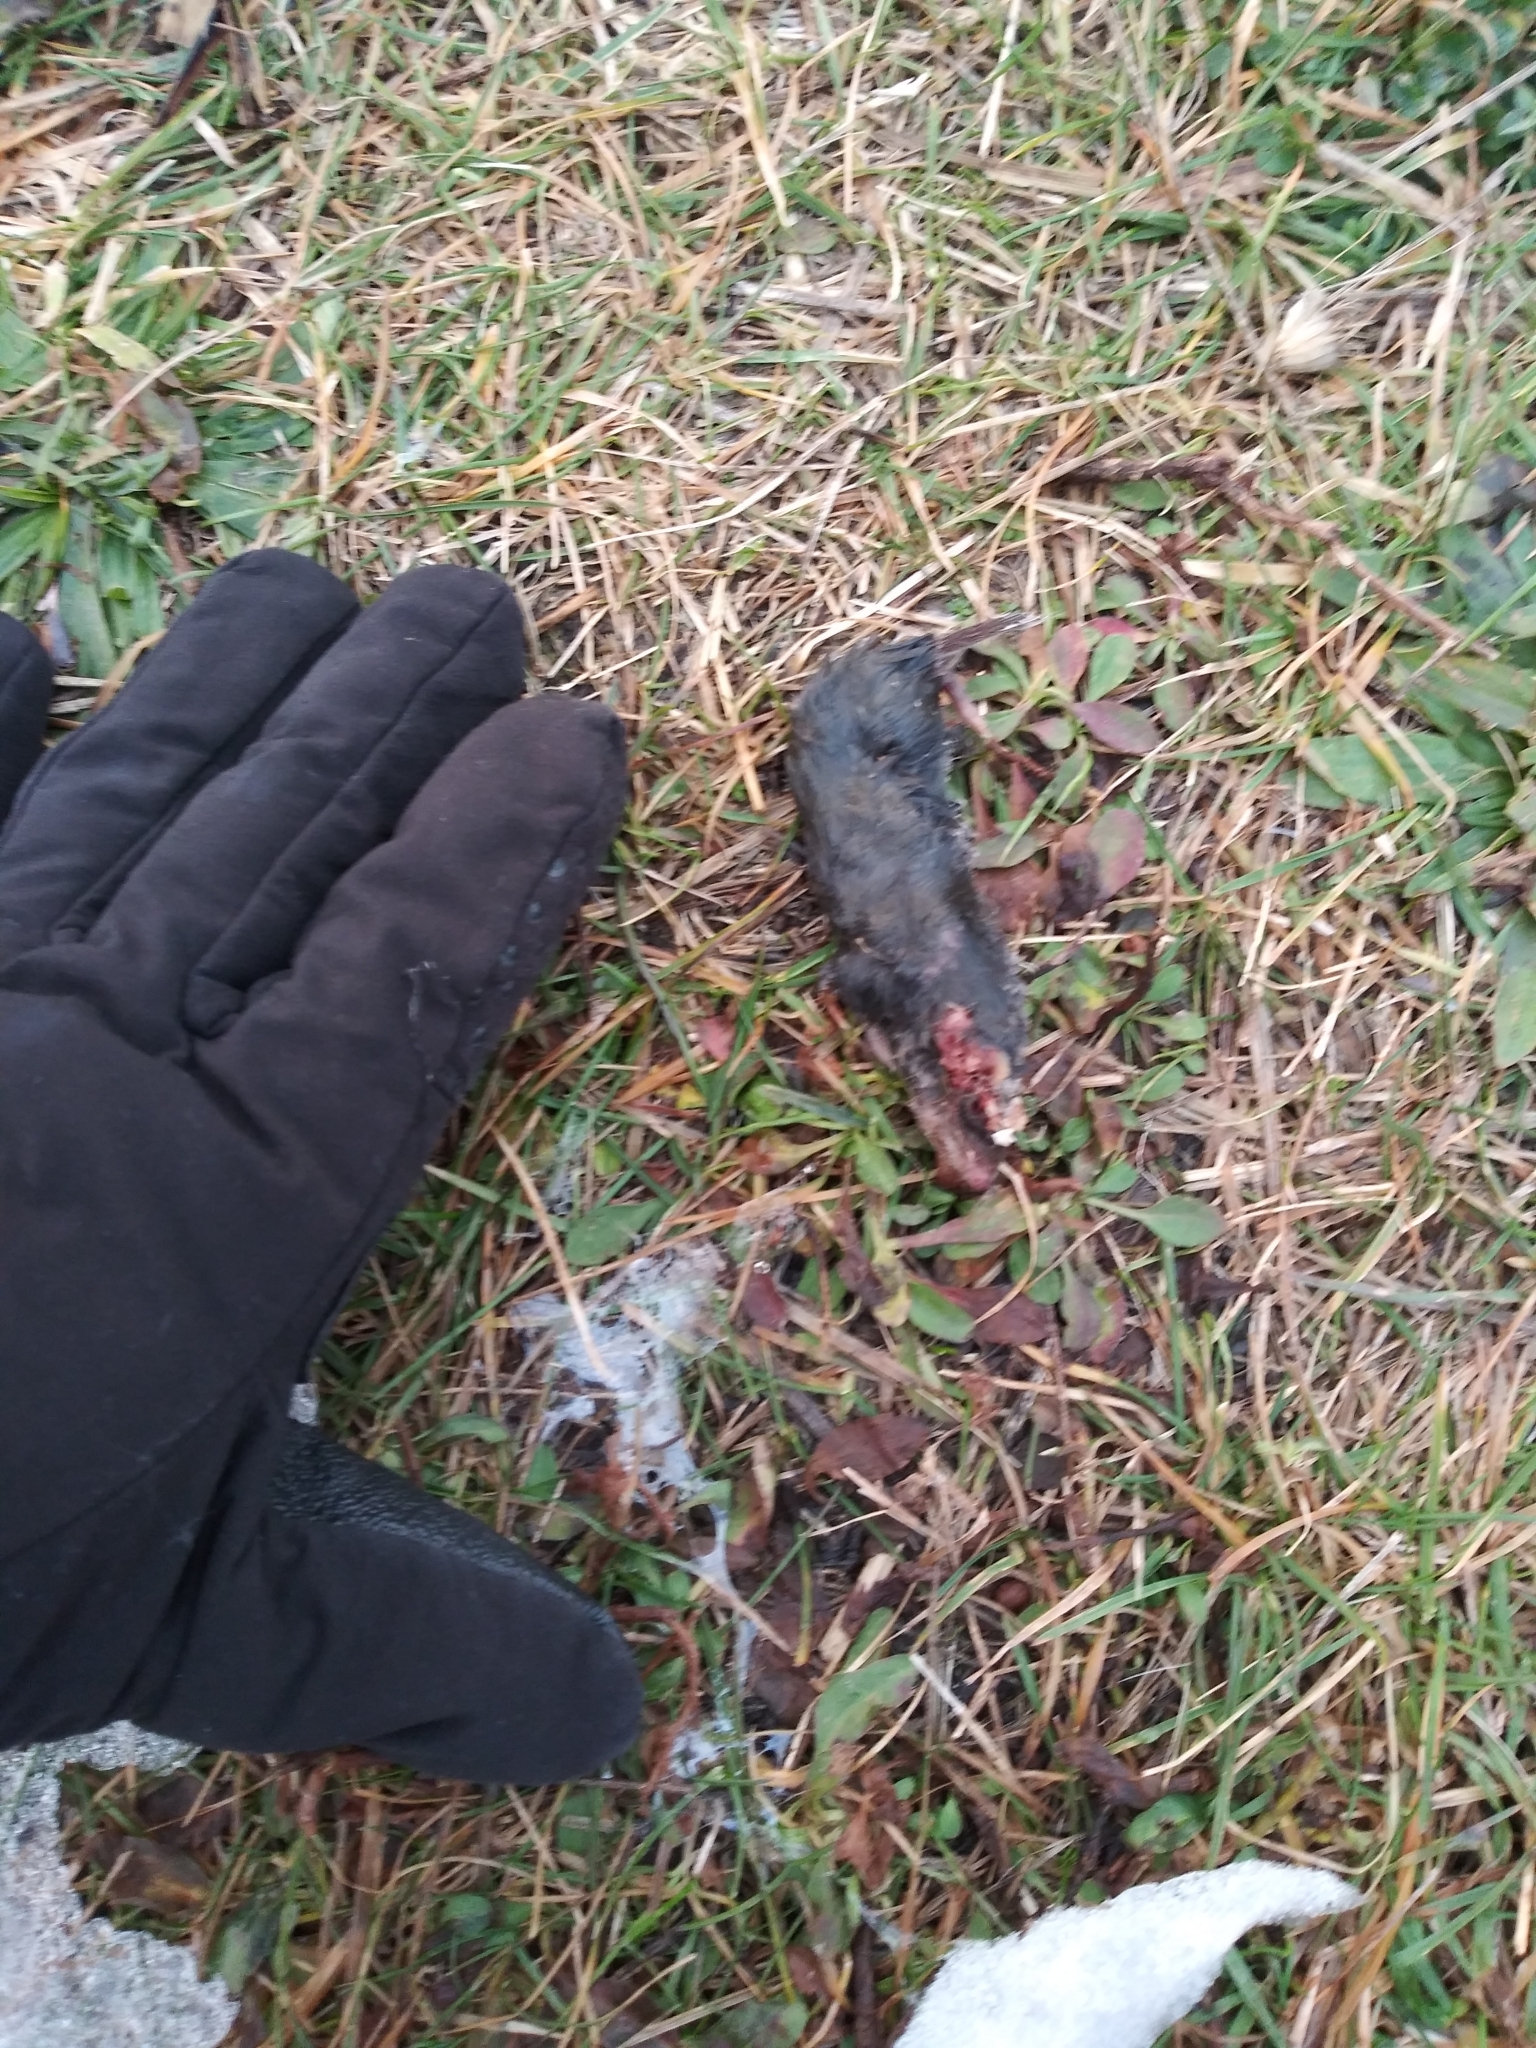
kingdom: Animalia
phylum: Chordata
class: Mammalia
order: Soricomorpha
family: Soricidae
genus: Blarina
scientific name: Blarina brevicauda
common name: Northern short-tailed shrew
